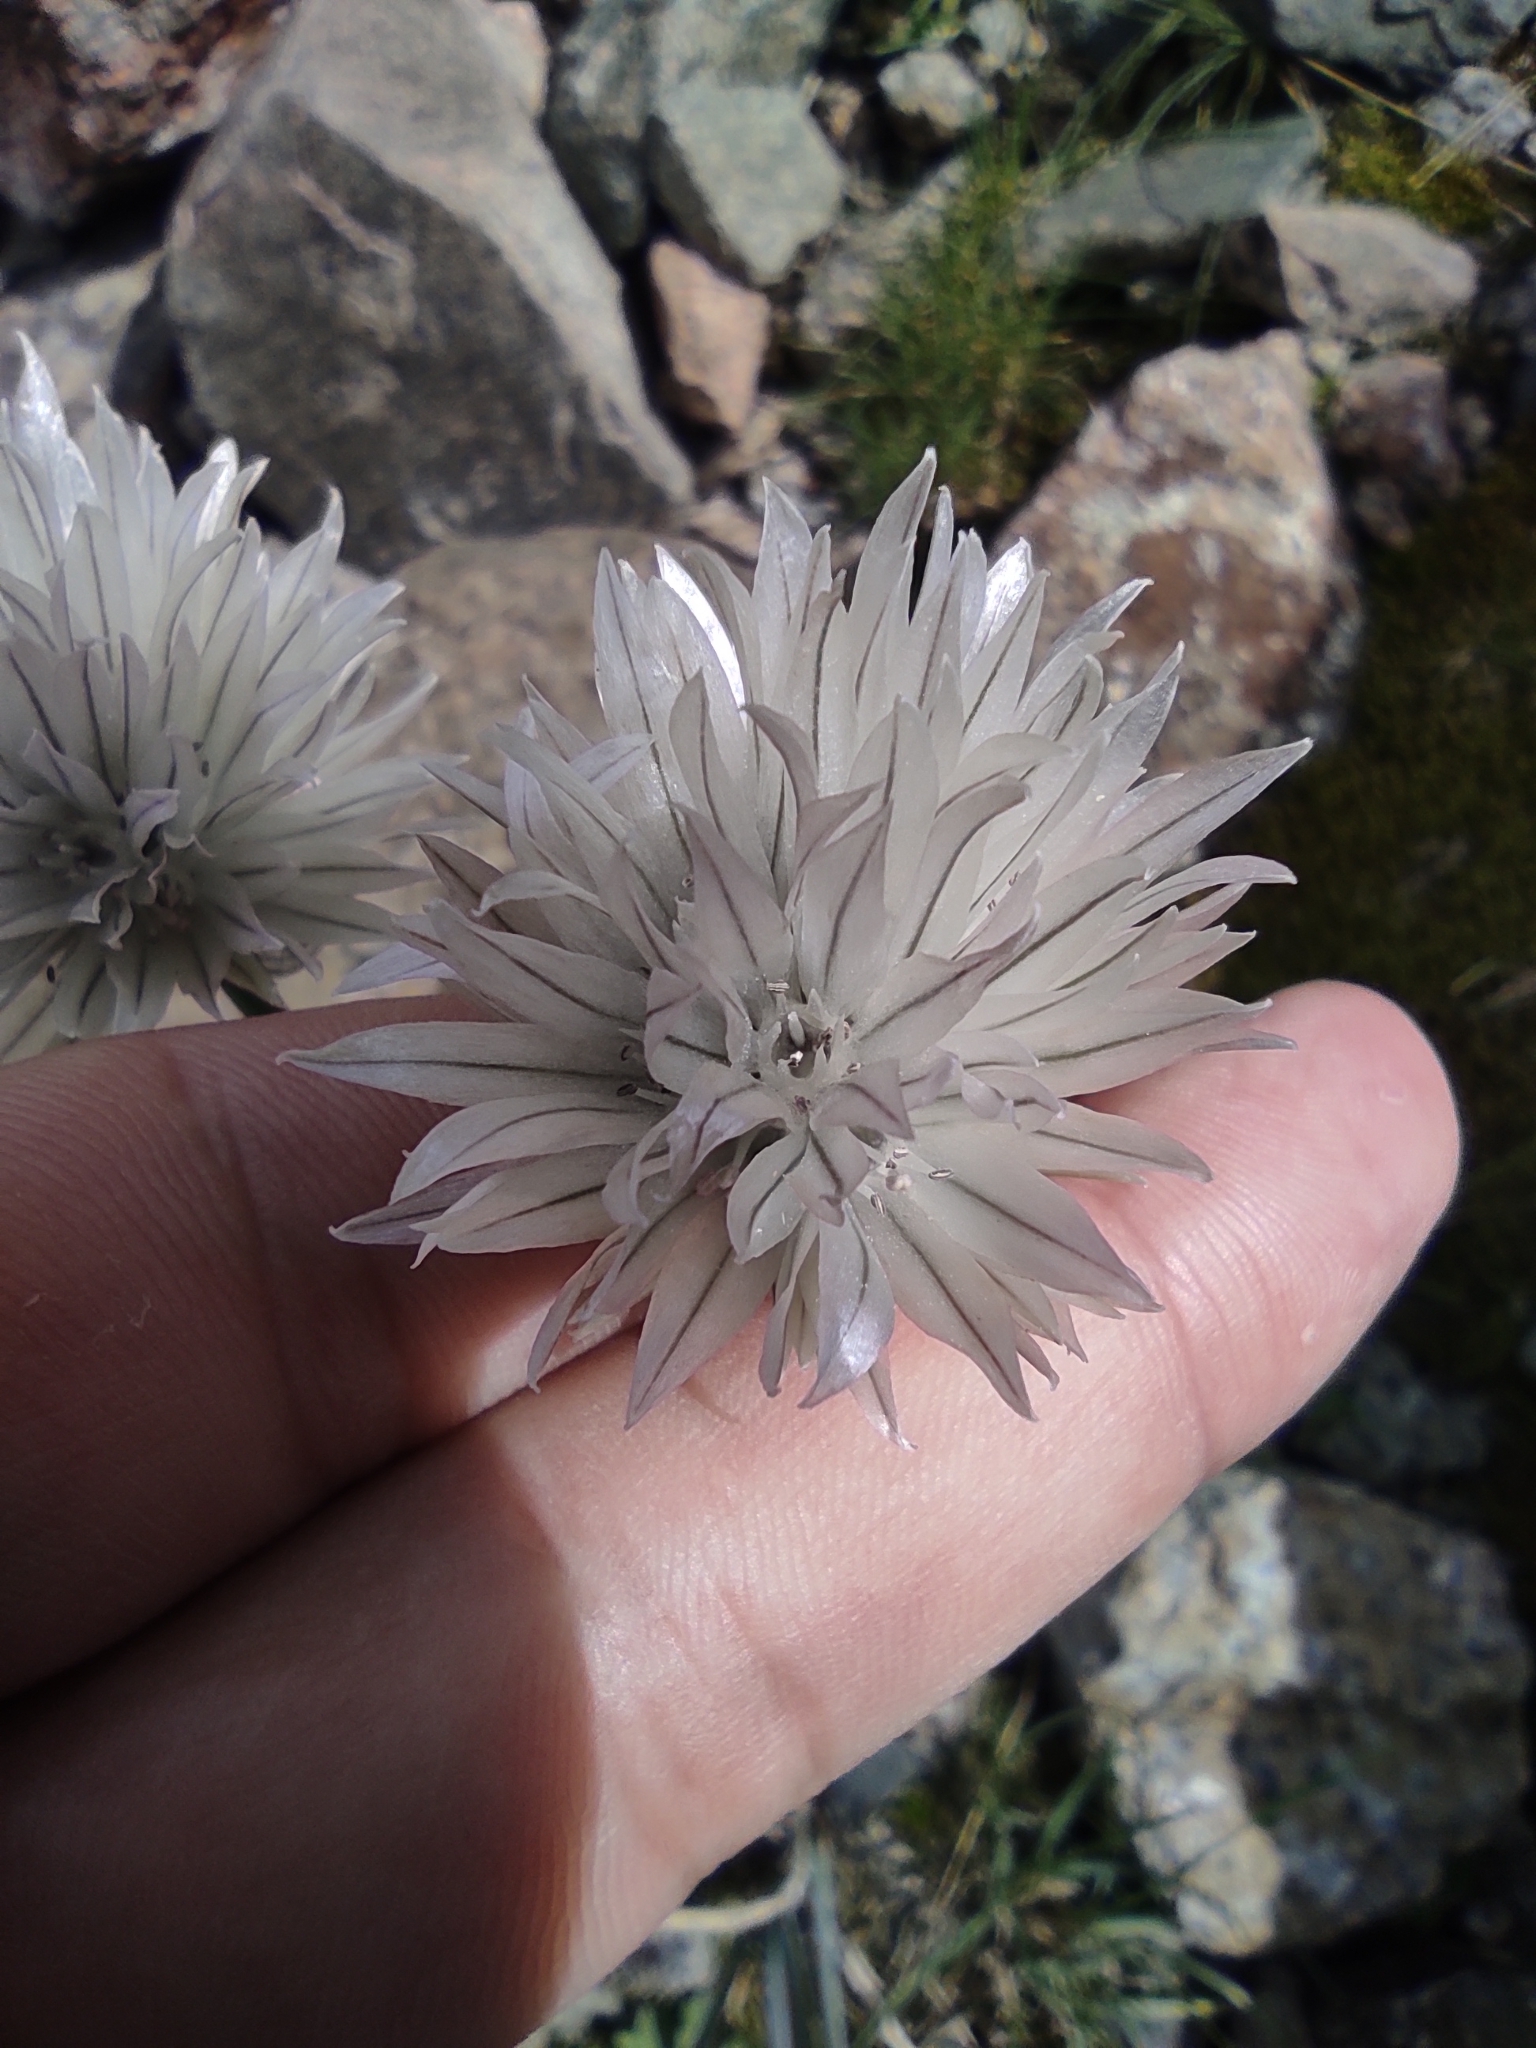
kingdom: Plantae
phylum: Tracheophyta
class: Liliopsida
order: Asparagales
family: Amaryllidaceae
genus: Allium
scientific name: Allium karelinii
